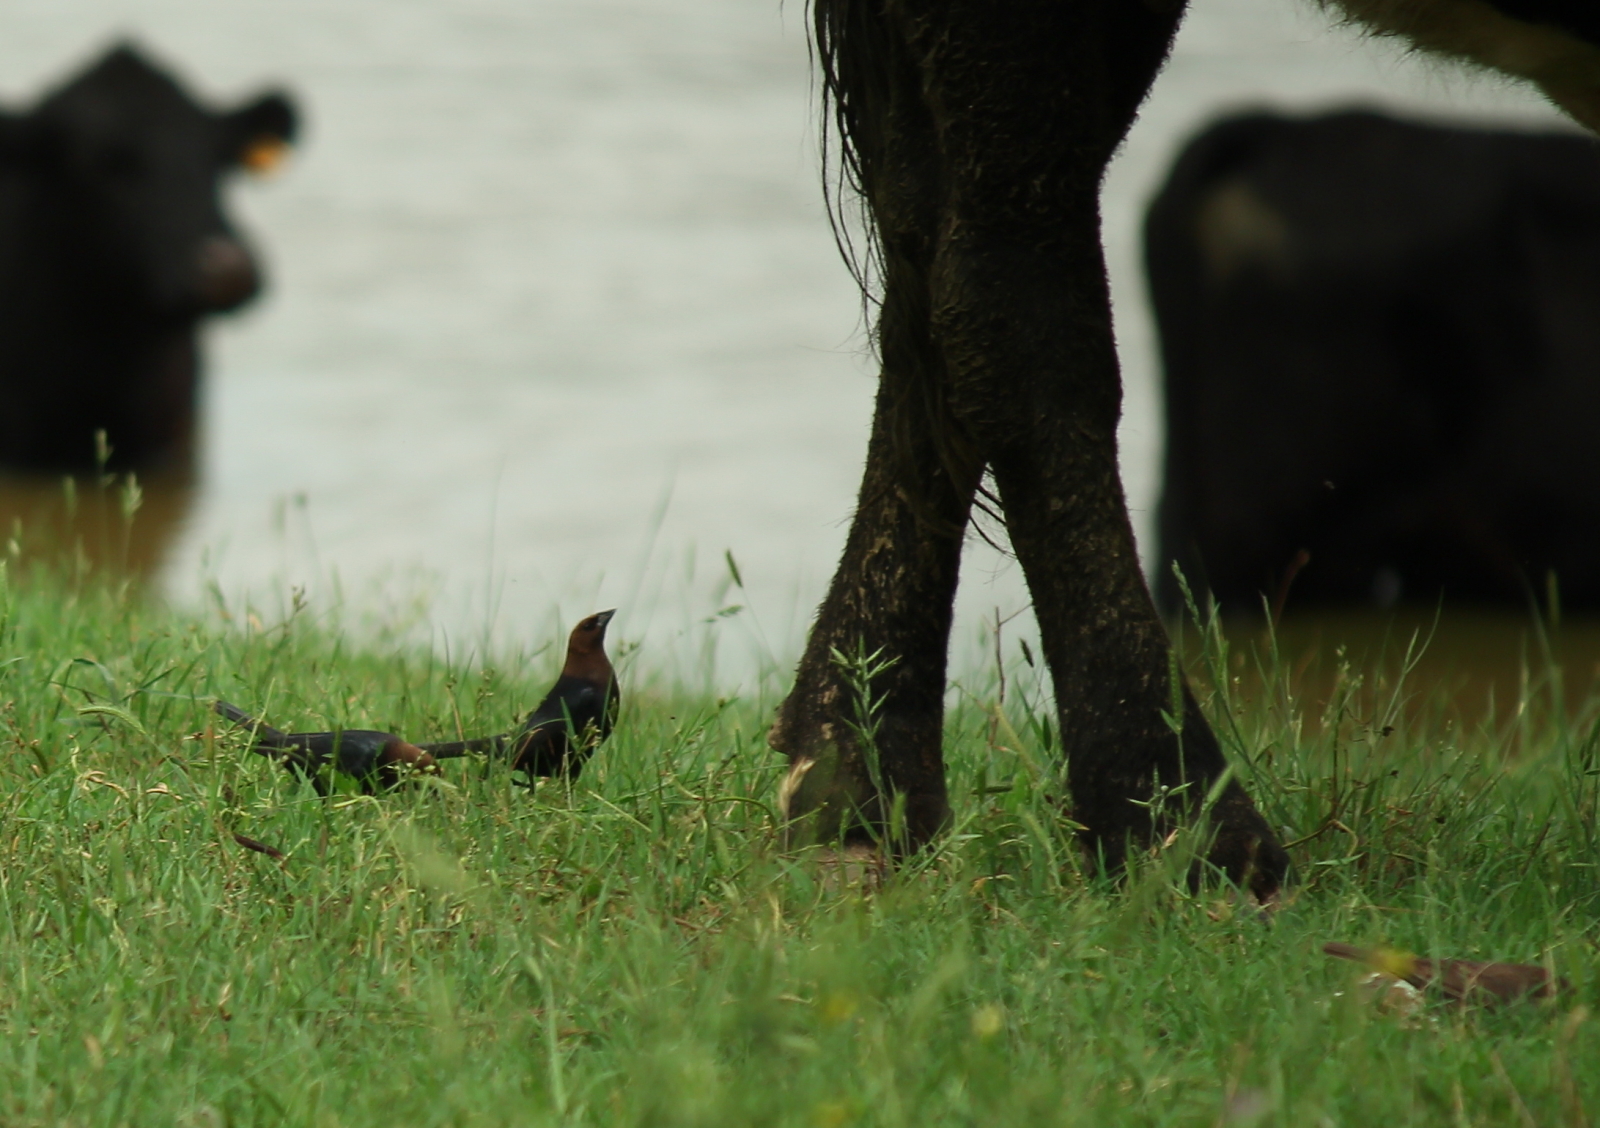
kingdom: Animalia
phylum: Chordata
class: Aves
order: Passeriformes
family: Icteridae
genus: Molothrus
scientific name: Molothrus ater
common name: Brown-headed cowbird
